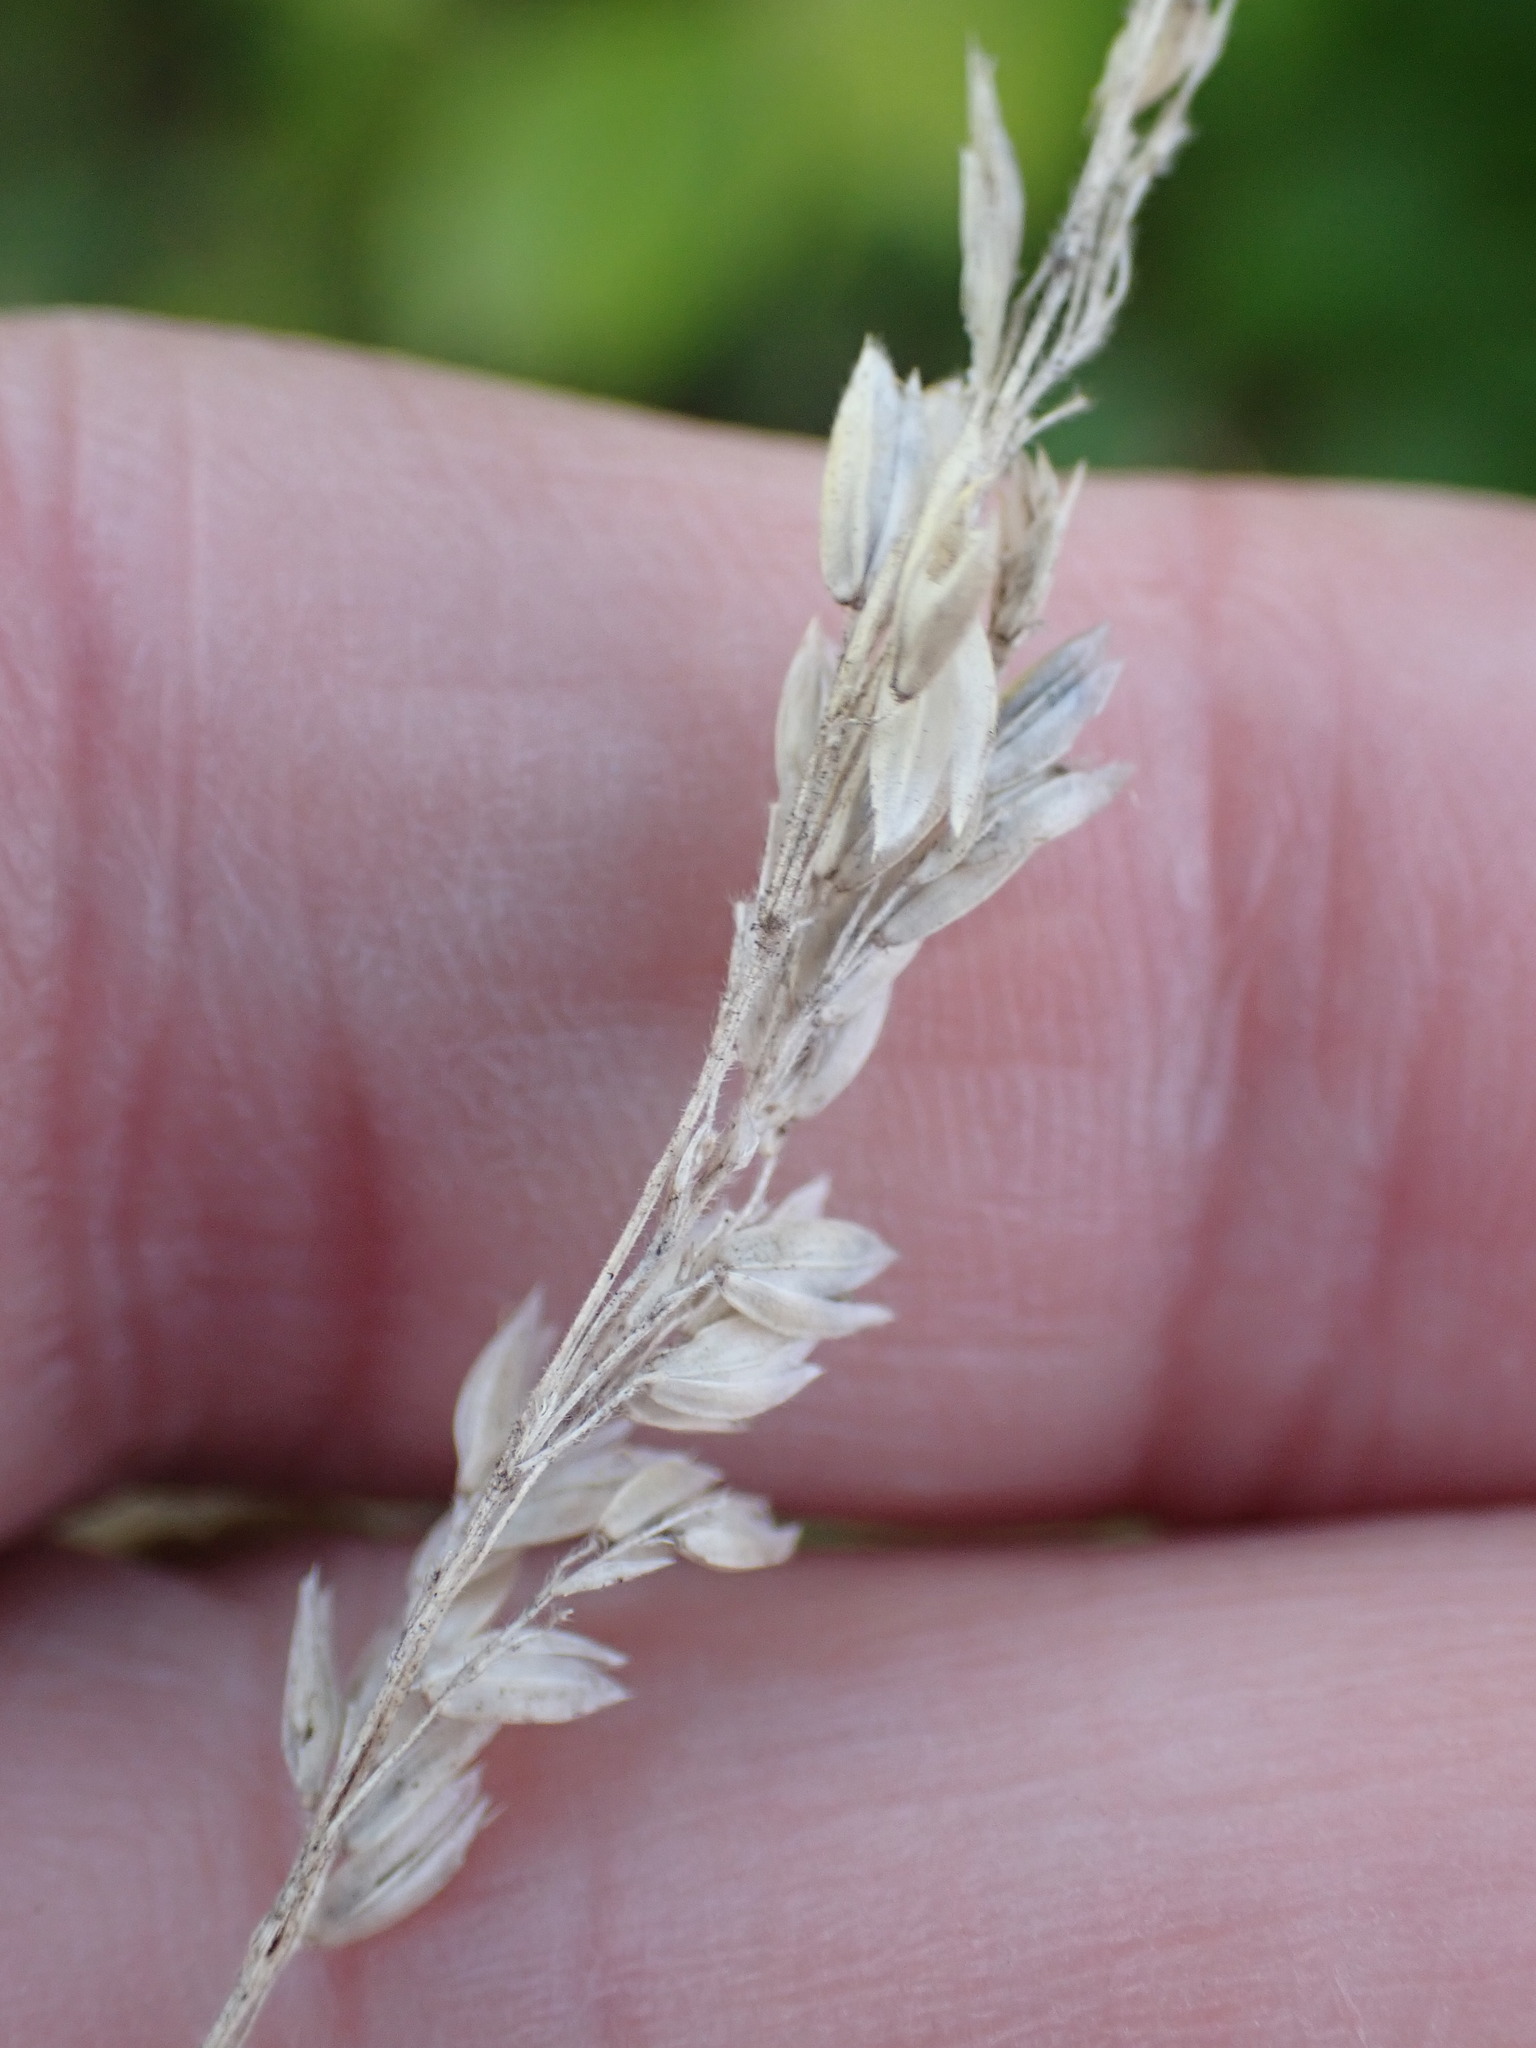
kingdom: Plantae
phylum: Tracheophyta
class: Liliopsida
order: Poales
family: Poaceae
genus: Holcus
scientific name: Holcus lanatus
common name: Yorkshire-fog
